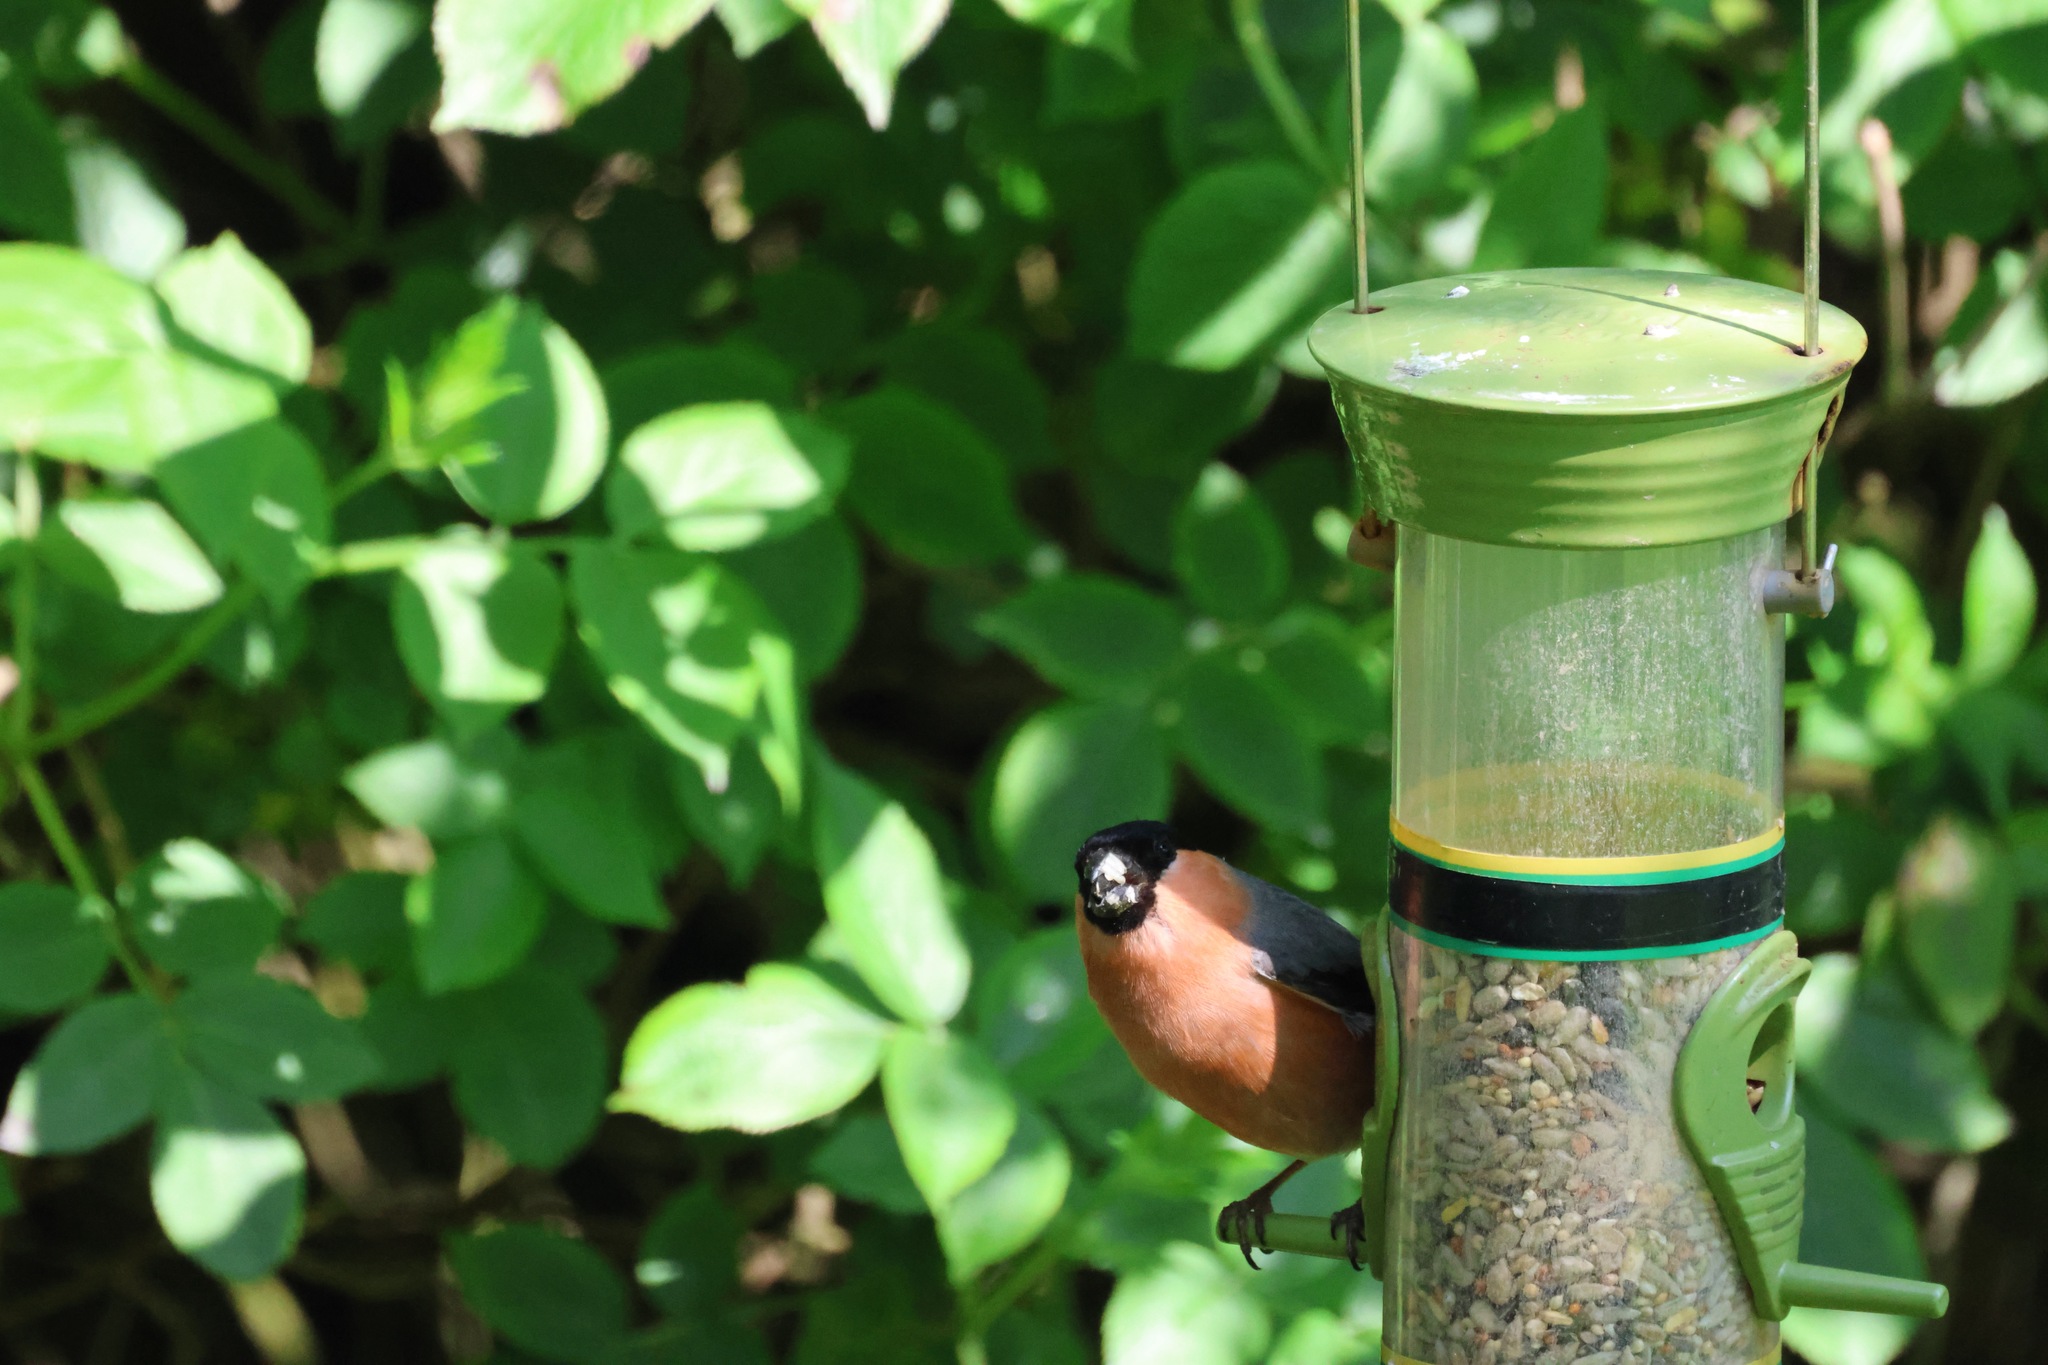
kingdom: Animalia
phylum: Chordata
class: Aves
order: Passeriformes
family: Fringillidae
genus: Pyrrhula
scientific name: Pyrrhula pyrrhula
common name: Eurasian bullfinch
